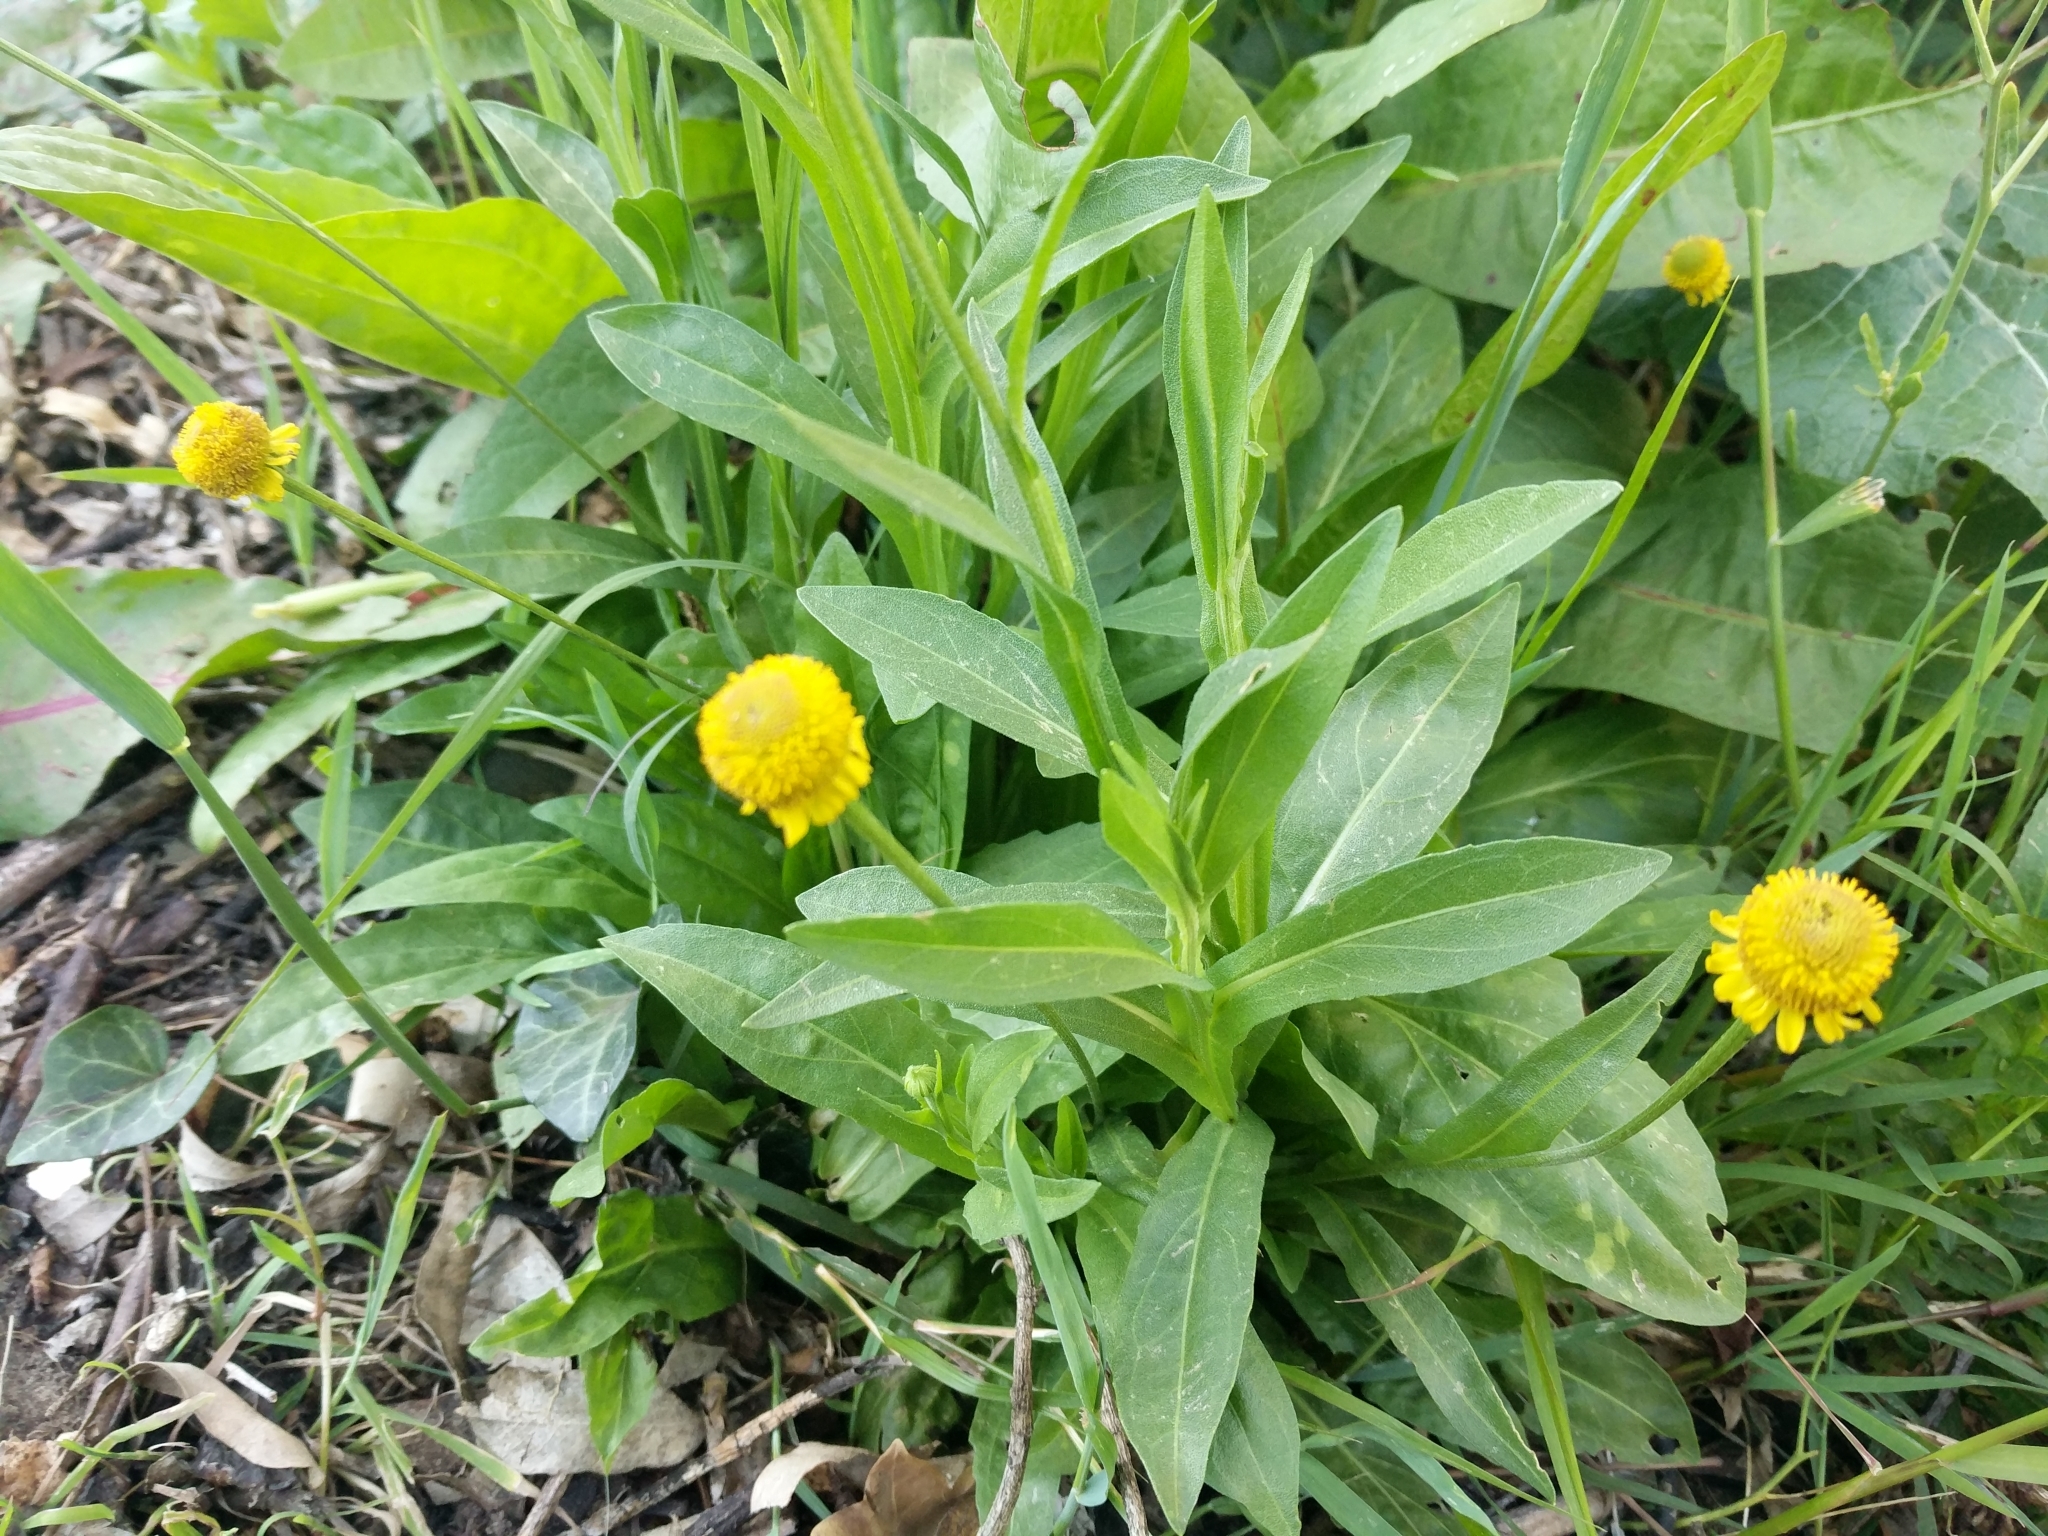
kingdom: Plantae
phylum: Tracheophyta
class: Magnoliopsida
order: Asterales
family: Asteraceae
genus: Helenium
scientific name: Helenium puberulum
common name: Sneezewort
